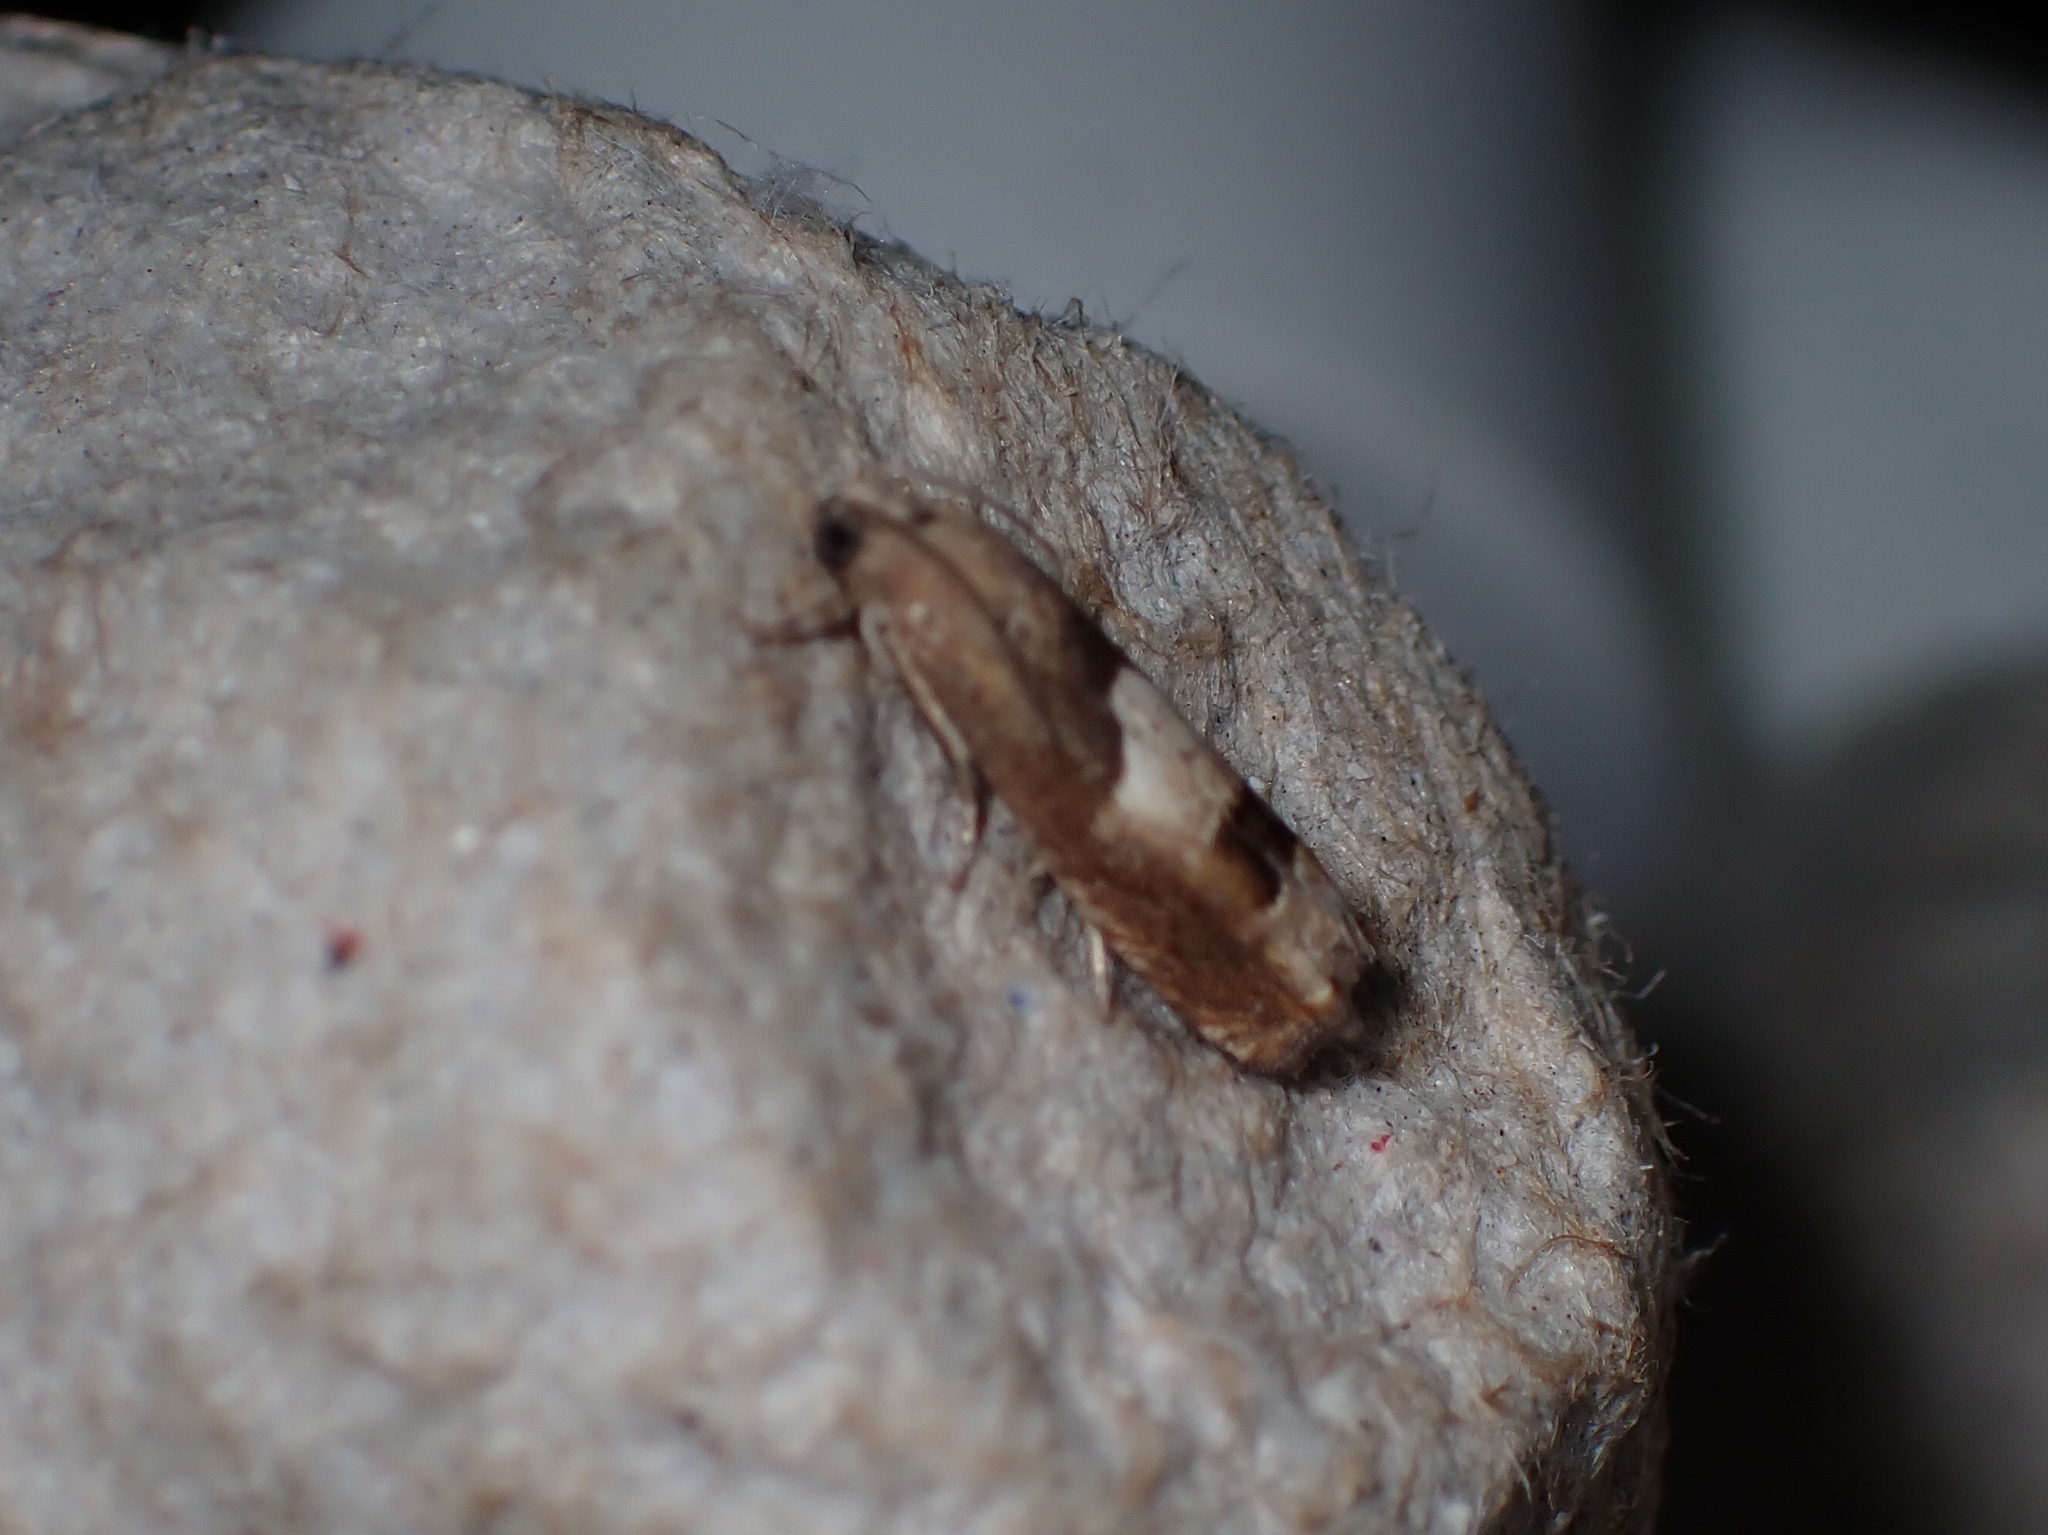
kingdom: Animalia
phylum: Arthropoda
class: Insecta
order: Lepidoptera
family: Tortricidae
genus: Epiblema
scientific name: Epiblema boxcana
